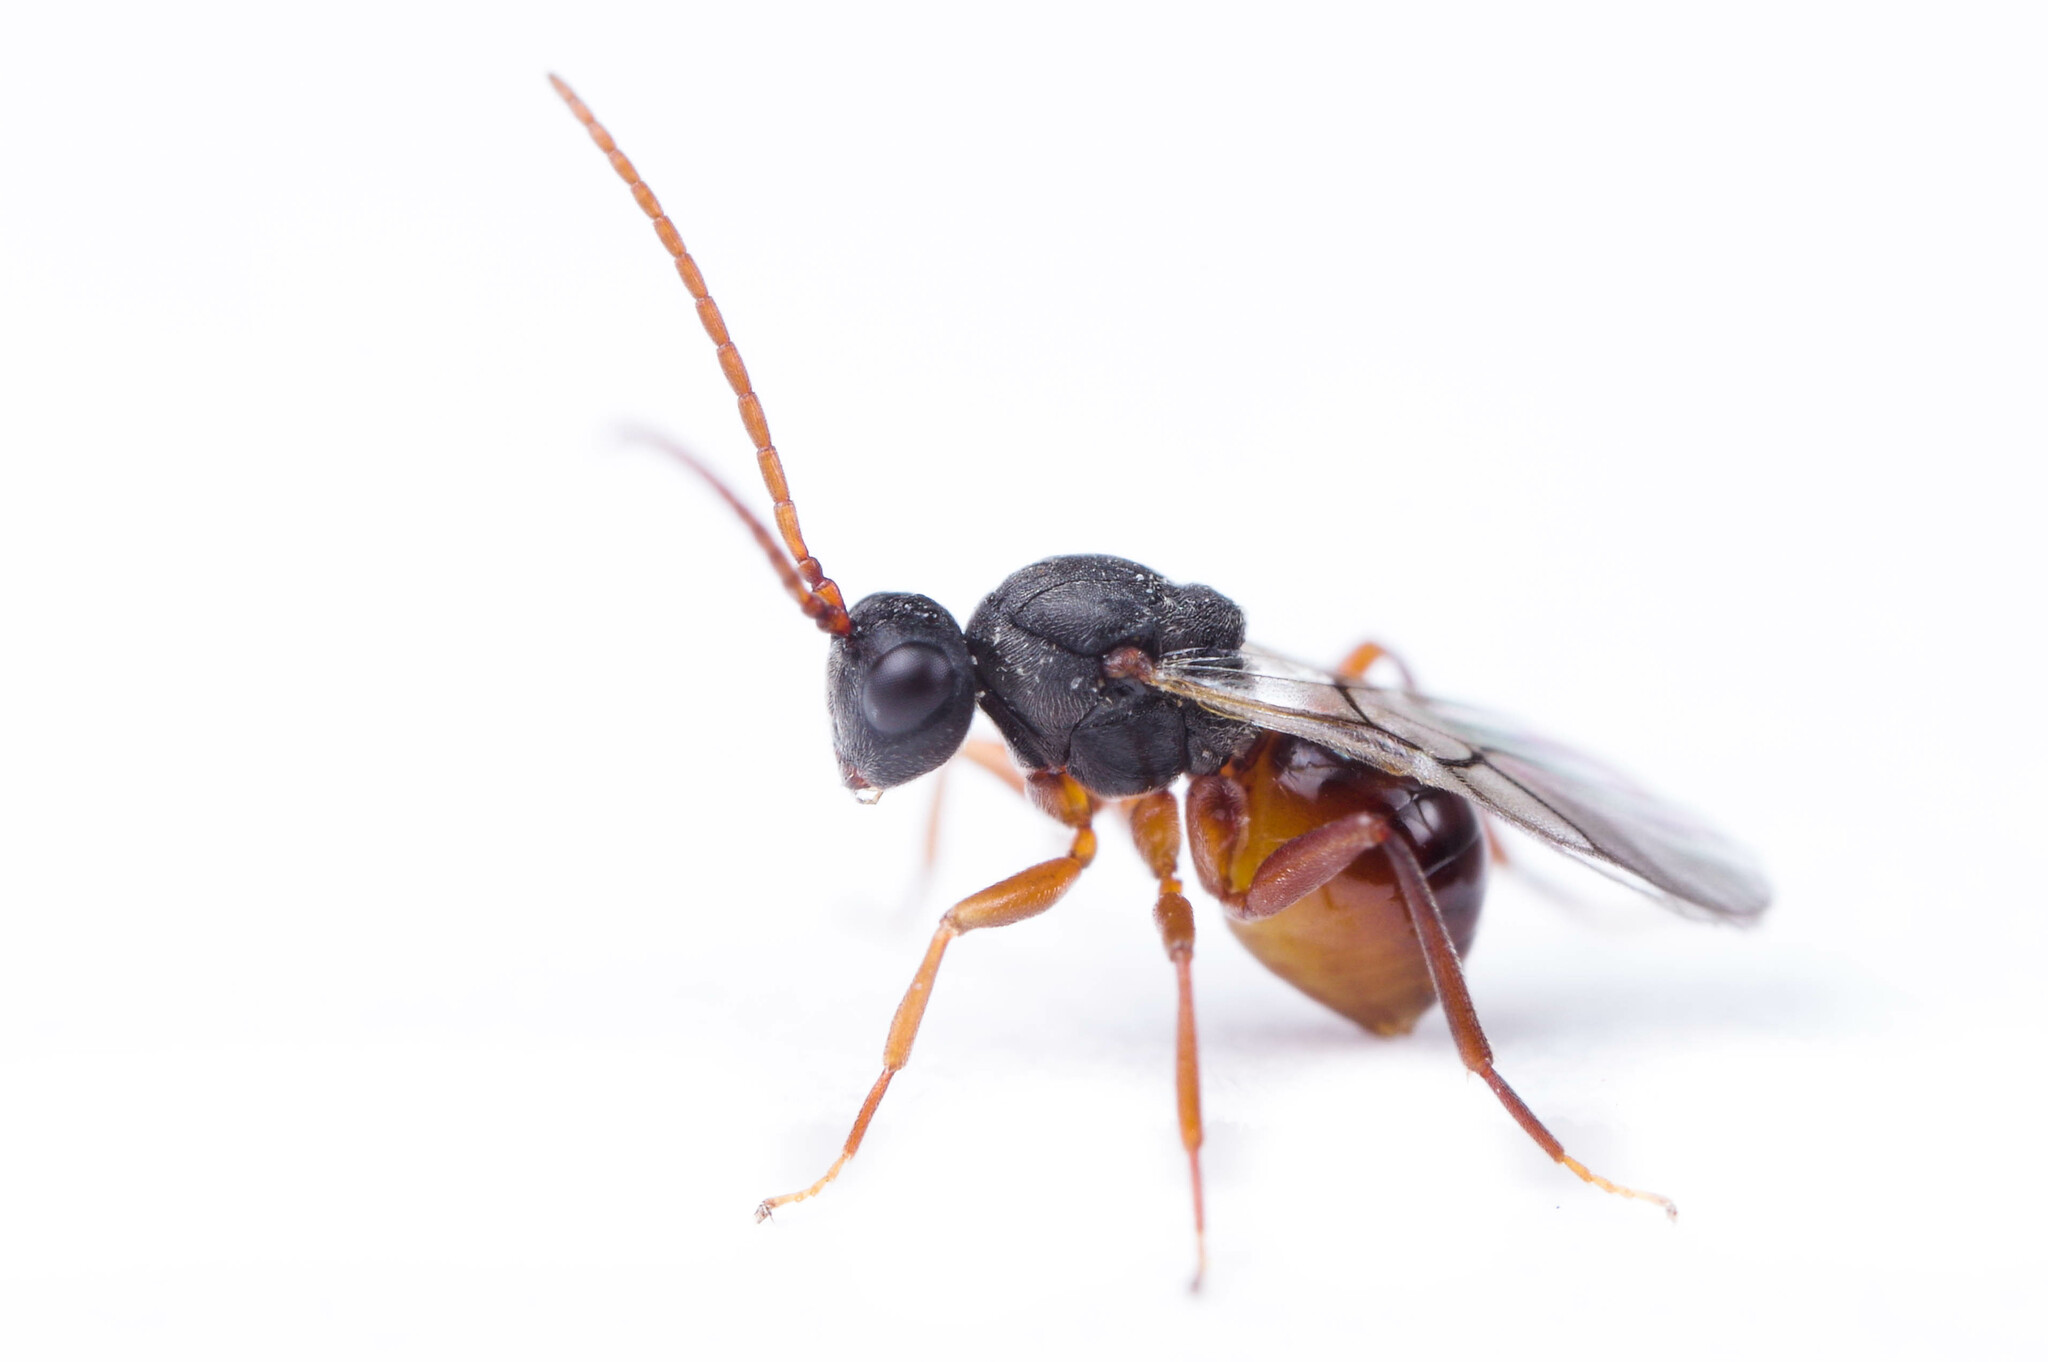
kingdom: Animalia
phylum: Arthropoda
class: Insecta
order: Hymenoptera
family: Cynipidae
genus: Aulacidea
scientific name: Aulacidea
